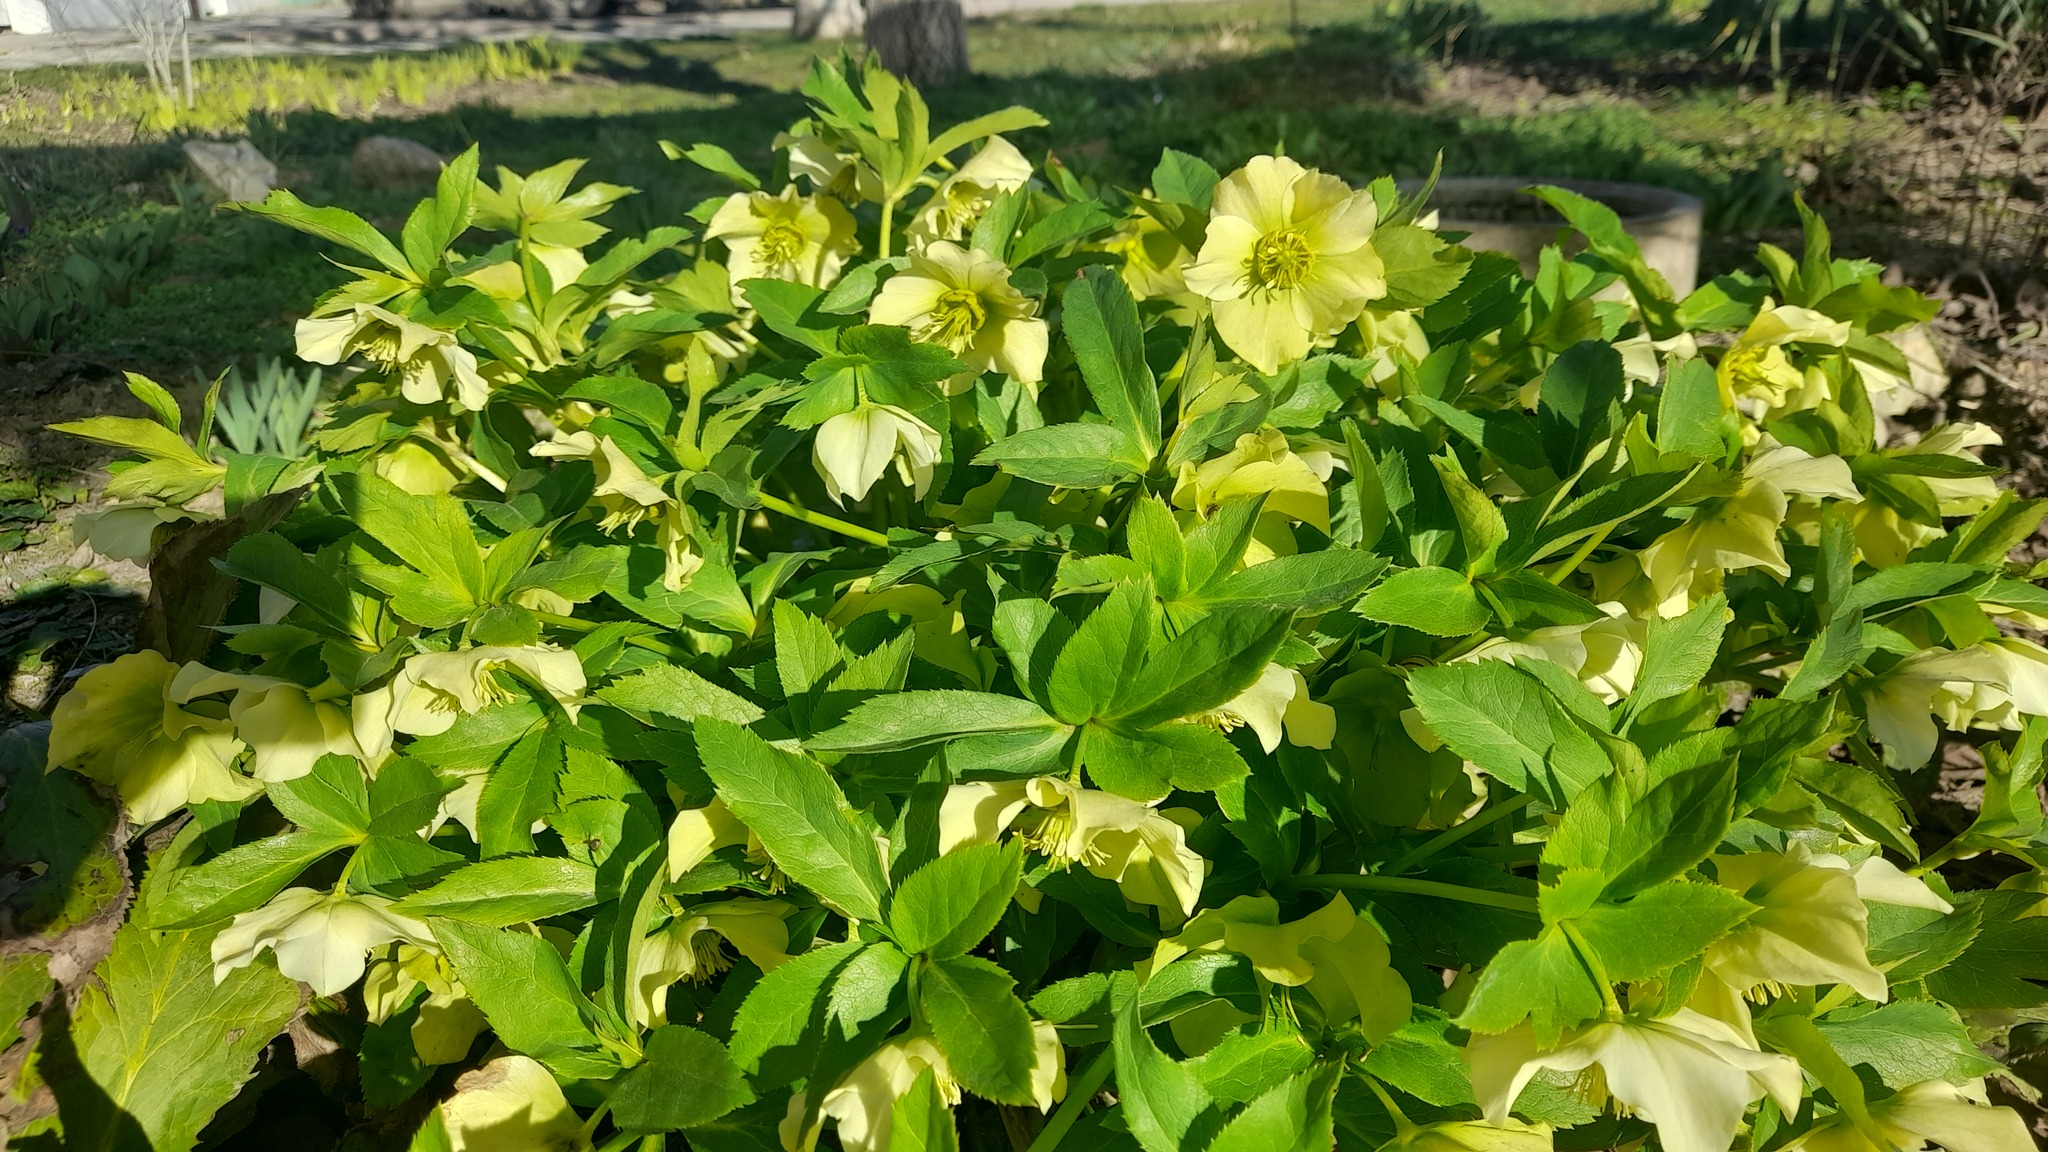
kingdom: Plantae
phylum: Tracheophyta
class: Magnoliopsida
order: Ranunculales
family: Ranunculaceae
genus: Helleborus
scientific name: Helleborus orientalis
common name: Lenten-rose
